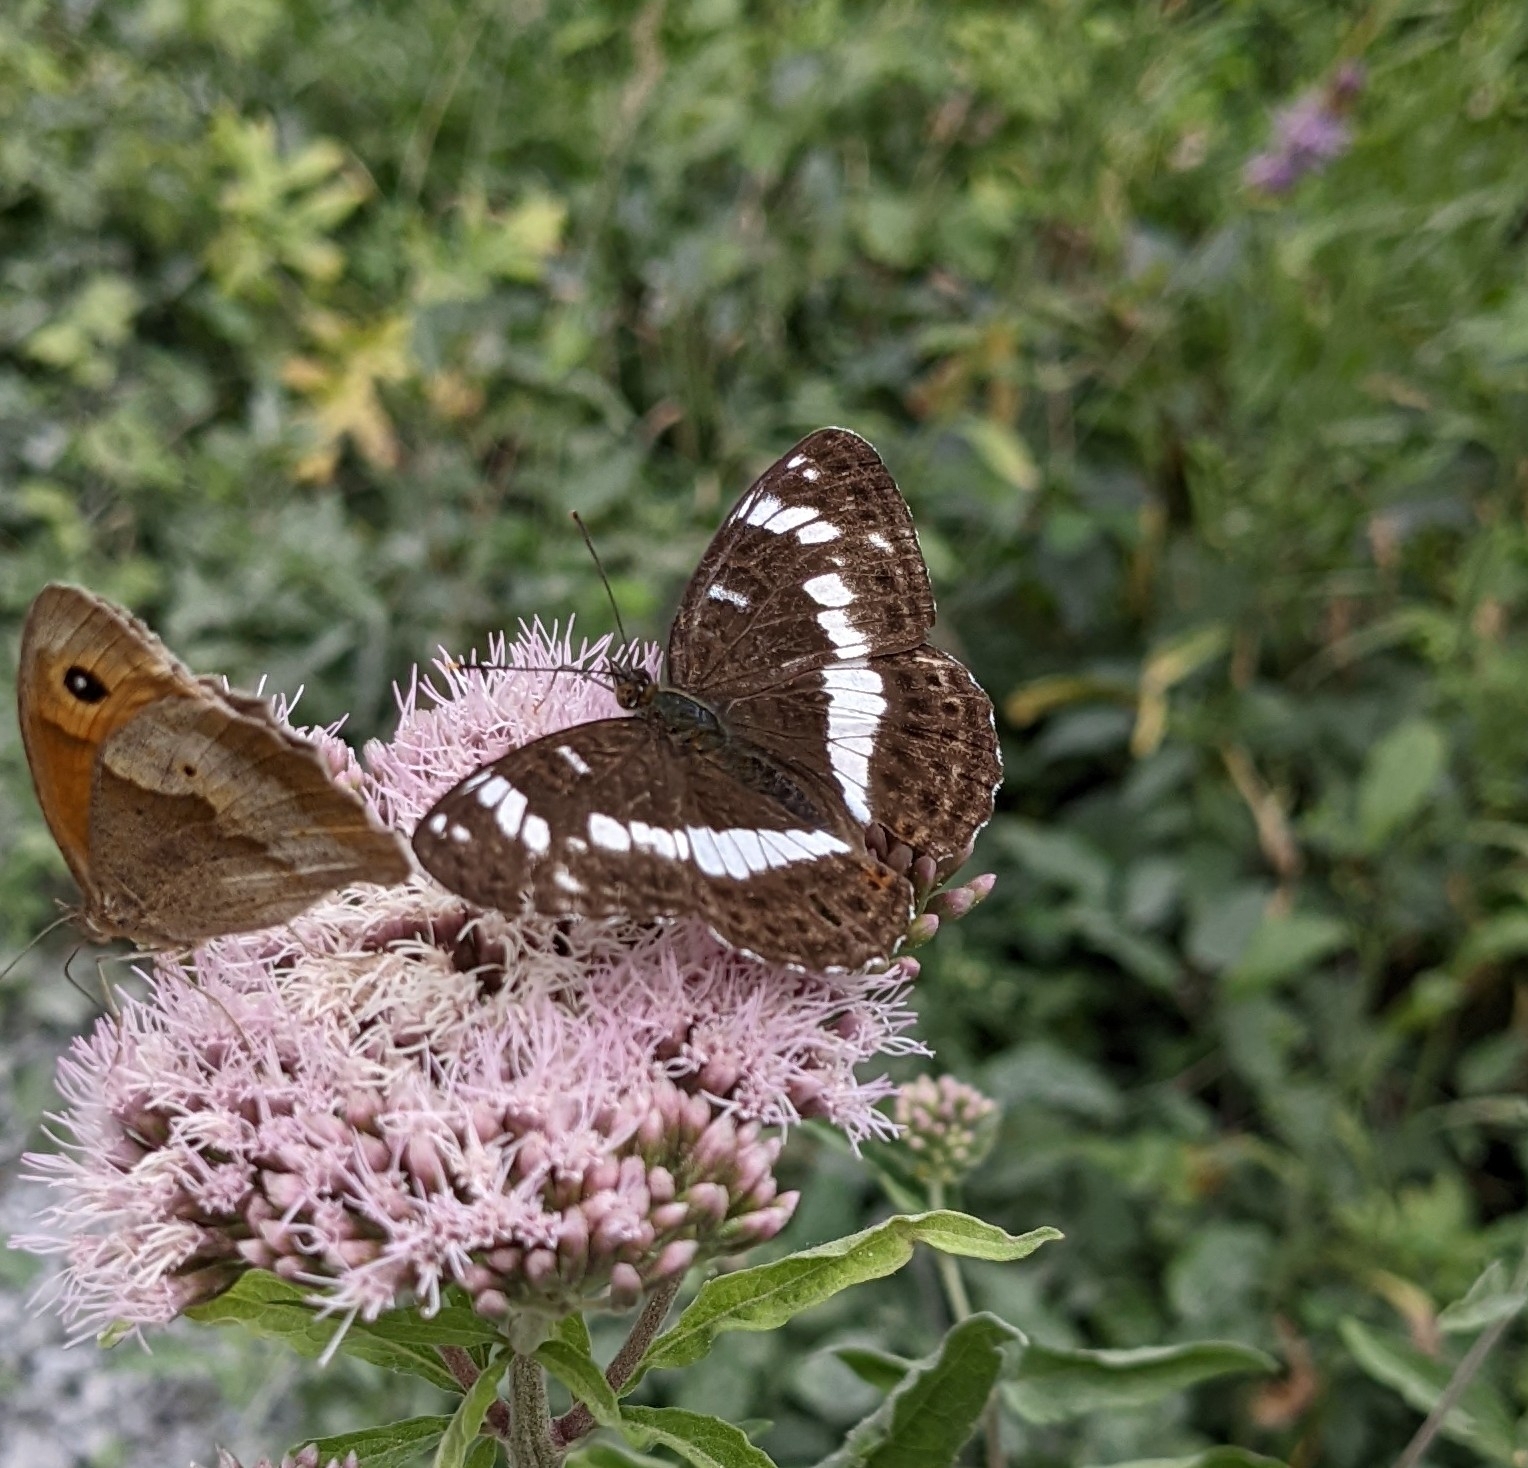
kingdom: Animalia
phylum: Arthropoda
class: Insecta
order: Lepidoptera
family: Nymphalidae
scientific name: Nymphalidae
